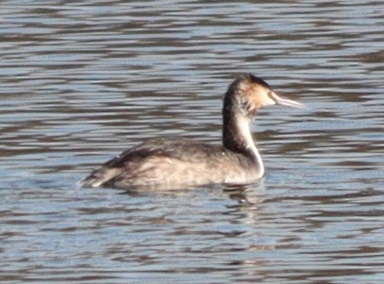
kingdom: Animalia
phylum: Chordata
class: Aves
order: Podicipediformes
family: Podicipedidae
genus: Podiceps
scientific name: Podiceps cristatus
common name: Great crested grebe
